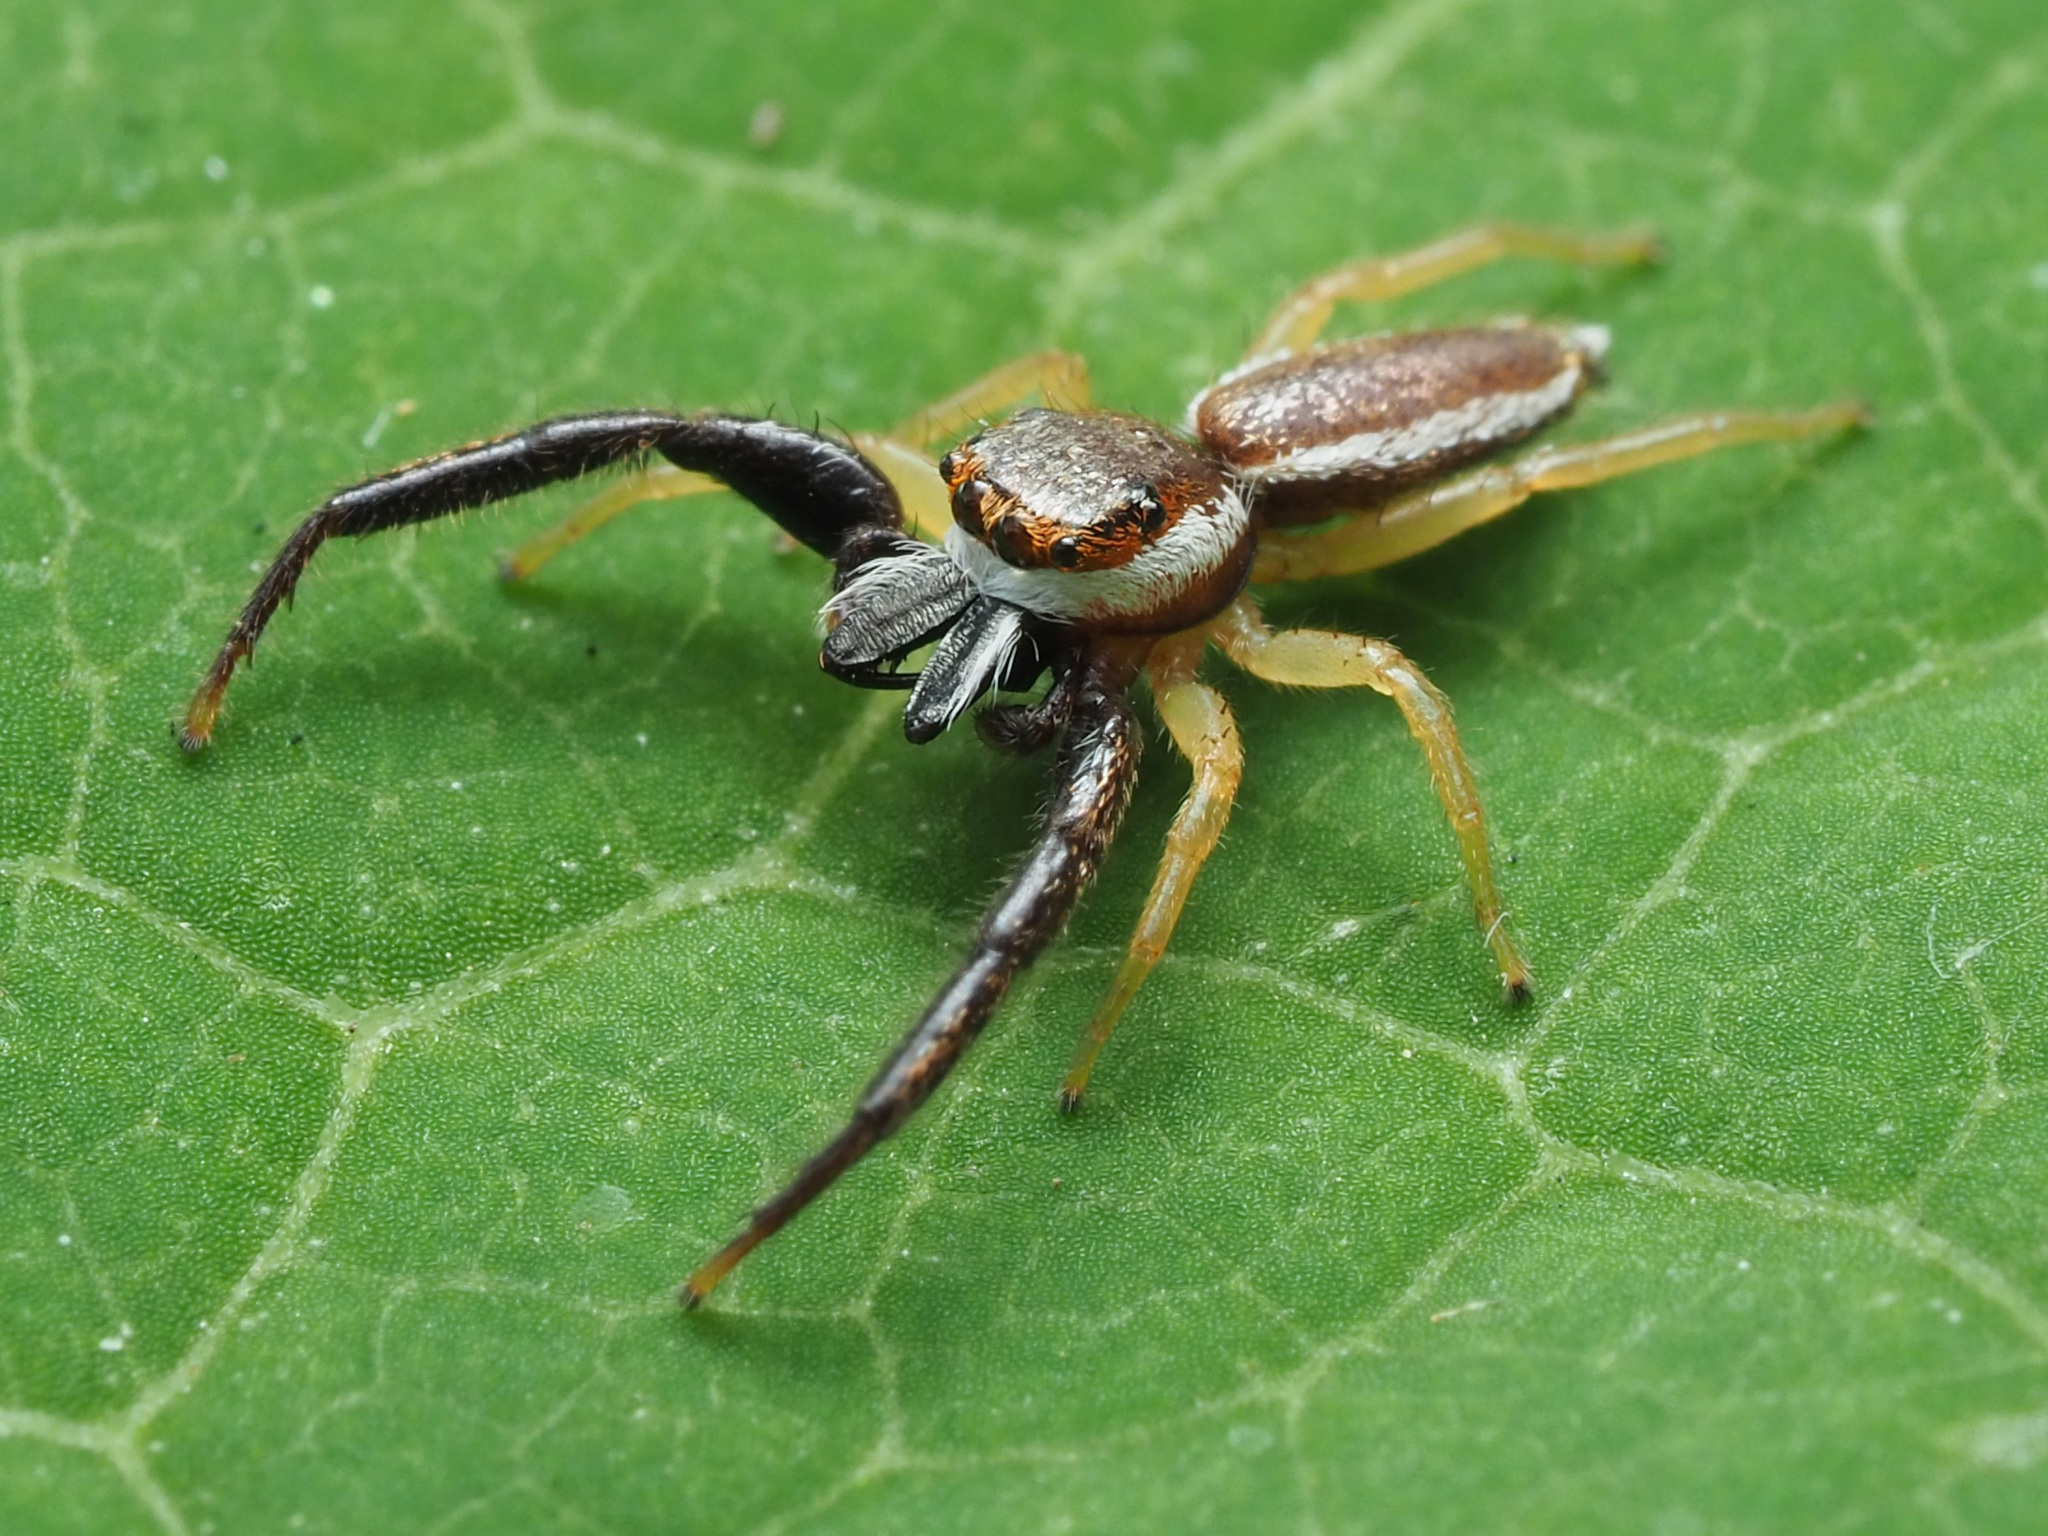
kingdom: Animalia
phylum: Arthropoda
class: Arachnida
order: Araneae
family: Salticidae
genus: Hentzia
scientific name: Hentzia palmarum
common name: Common hentz jumping spider
